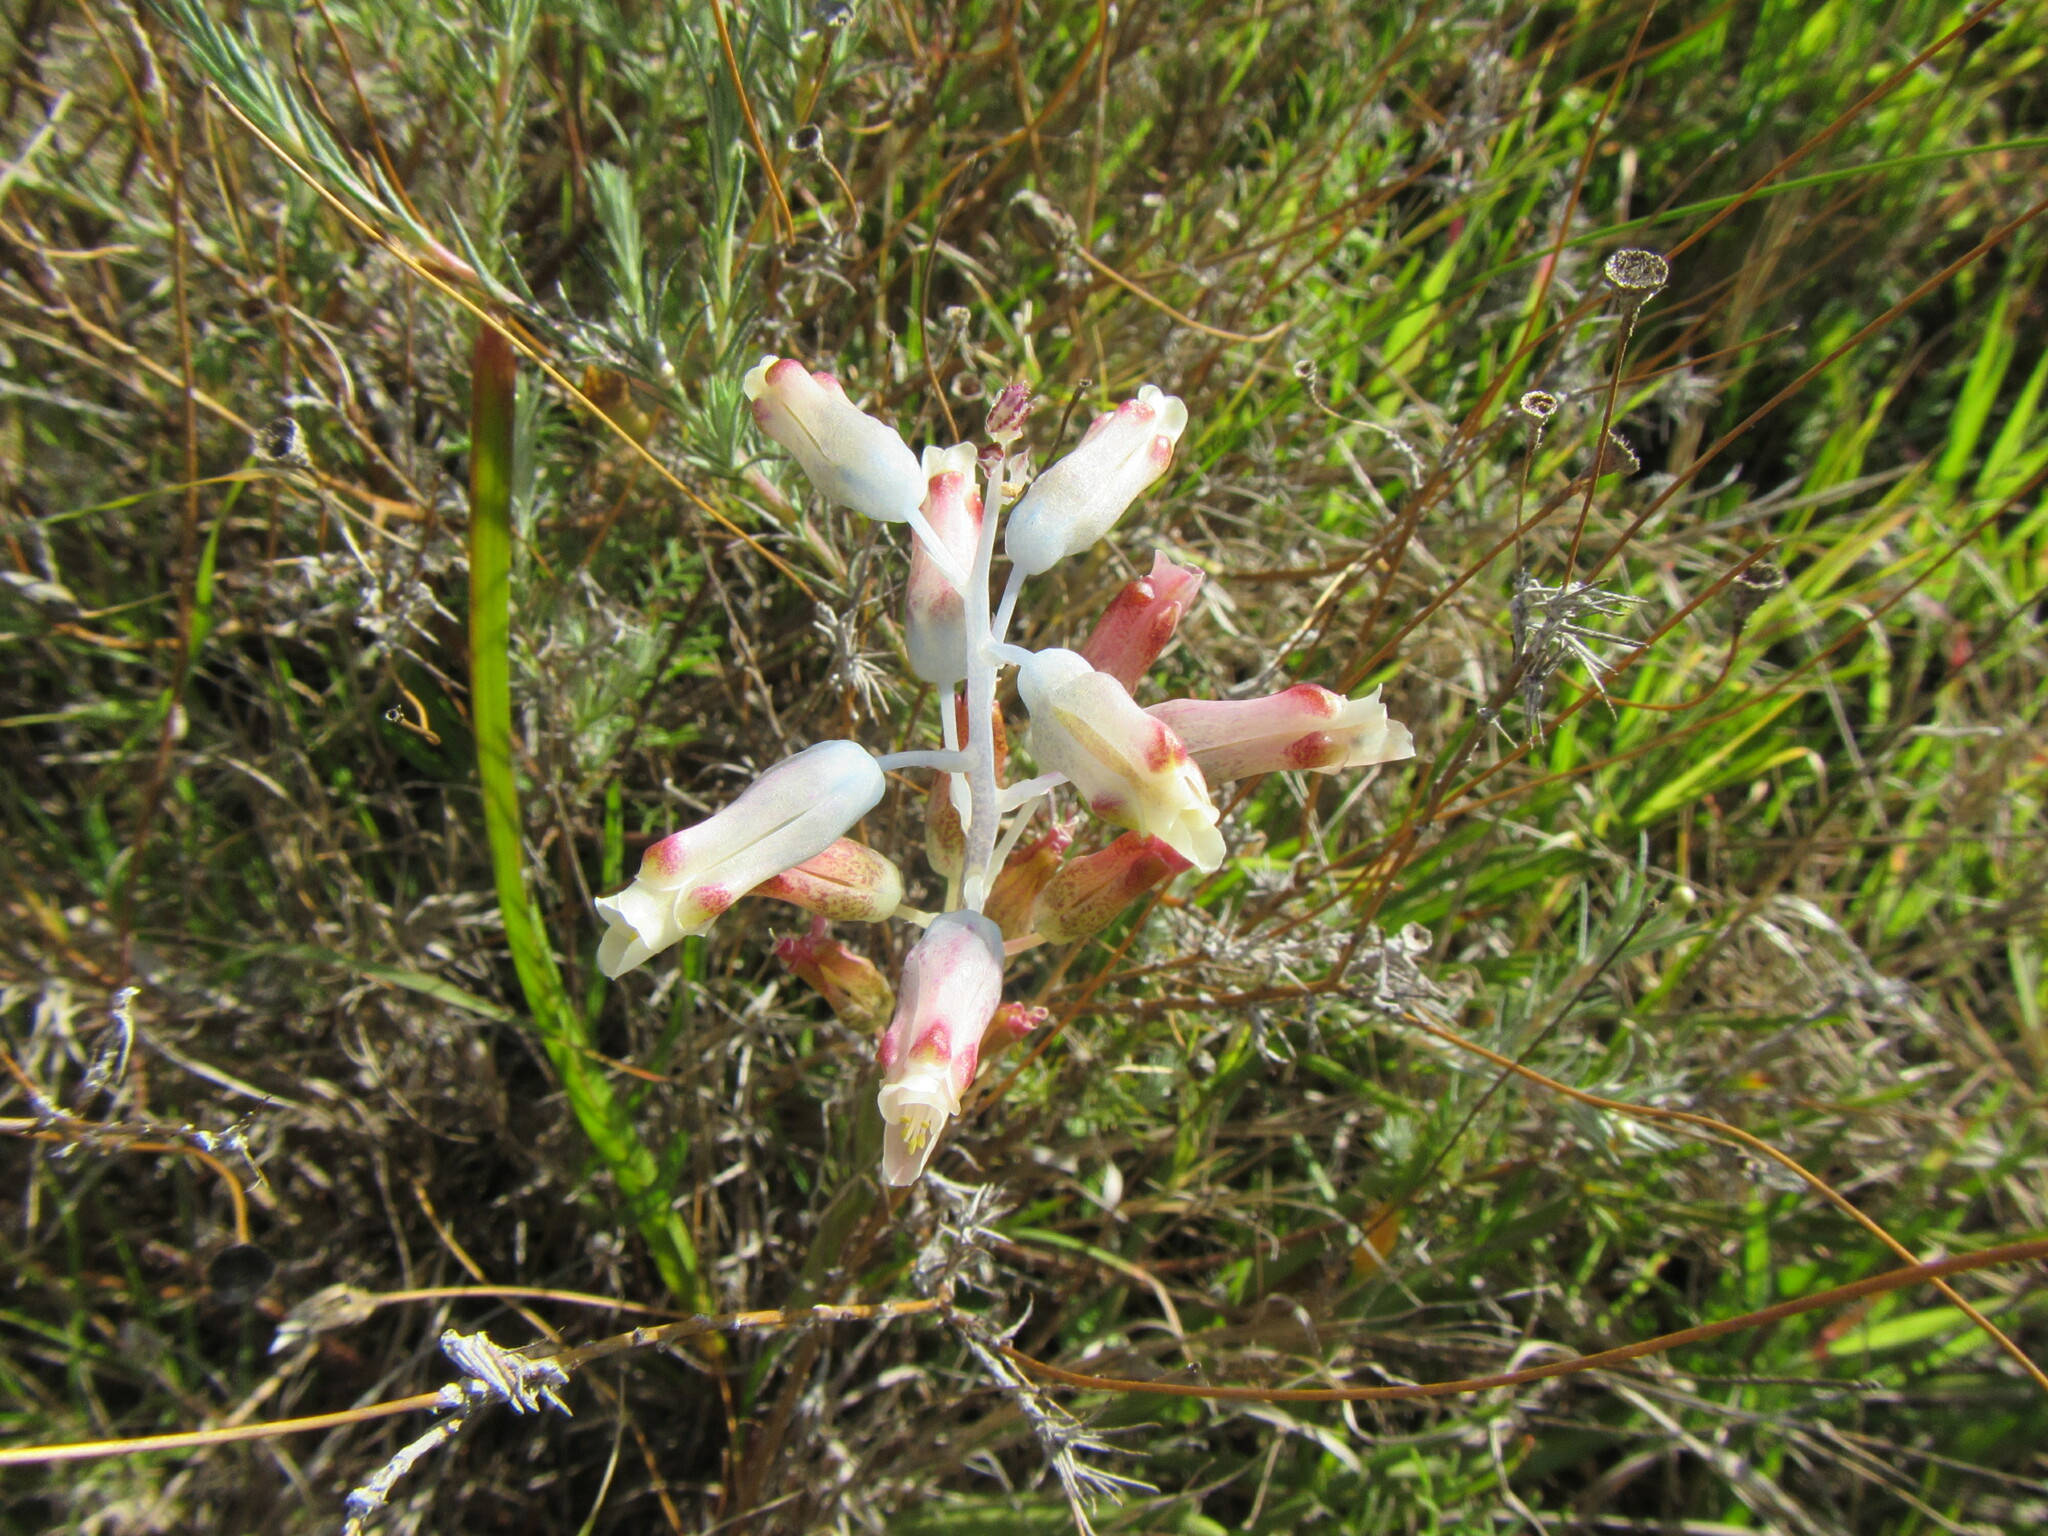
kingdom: Plantae
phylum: Tracheophyta
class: Liliopsida
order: Asparagales
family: Asparagaceae
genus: Lachenalia
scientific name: Lachenalia unifolia
